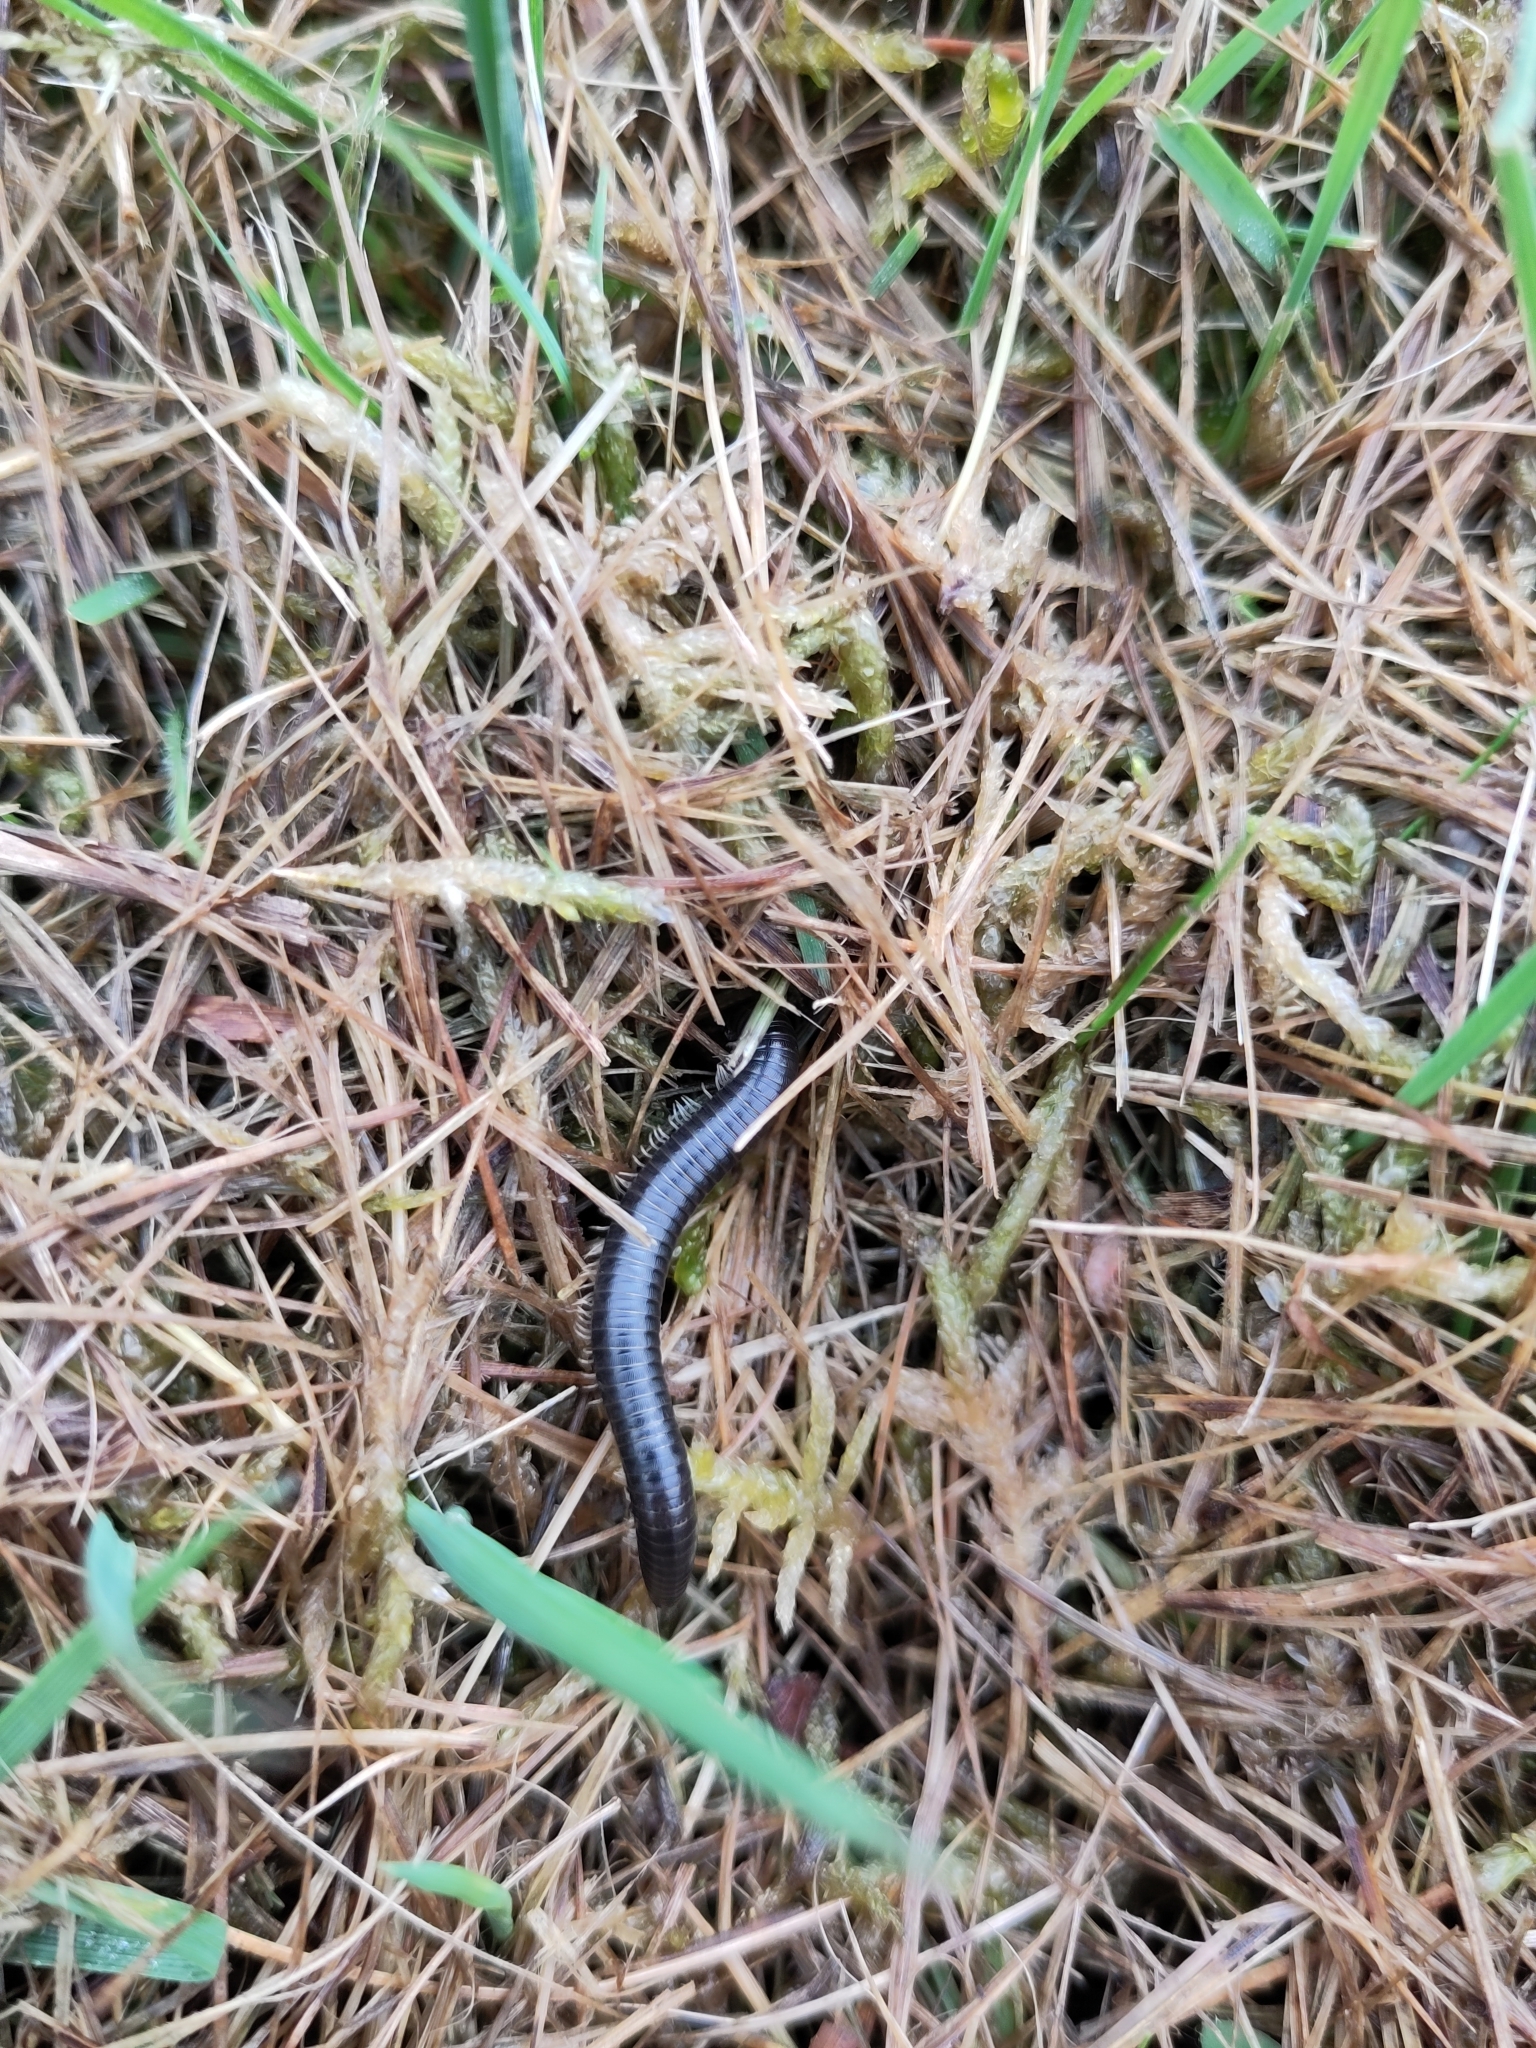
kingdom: Animalia
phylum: Arthropoda
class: Diplopoda
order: Julida
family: Julidae
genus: Ommatoiulus
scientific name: Ommatoiulus moreleti
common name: Portuguese millipede
